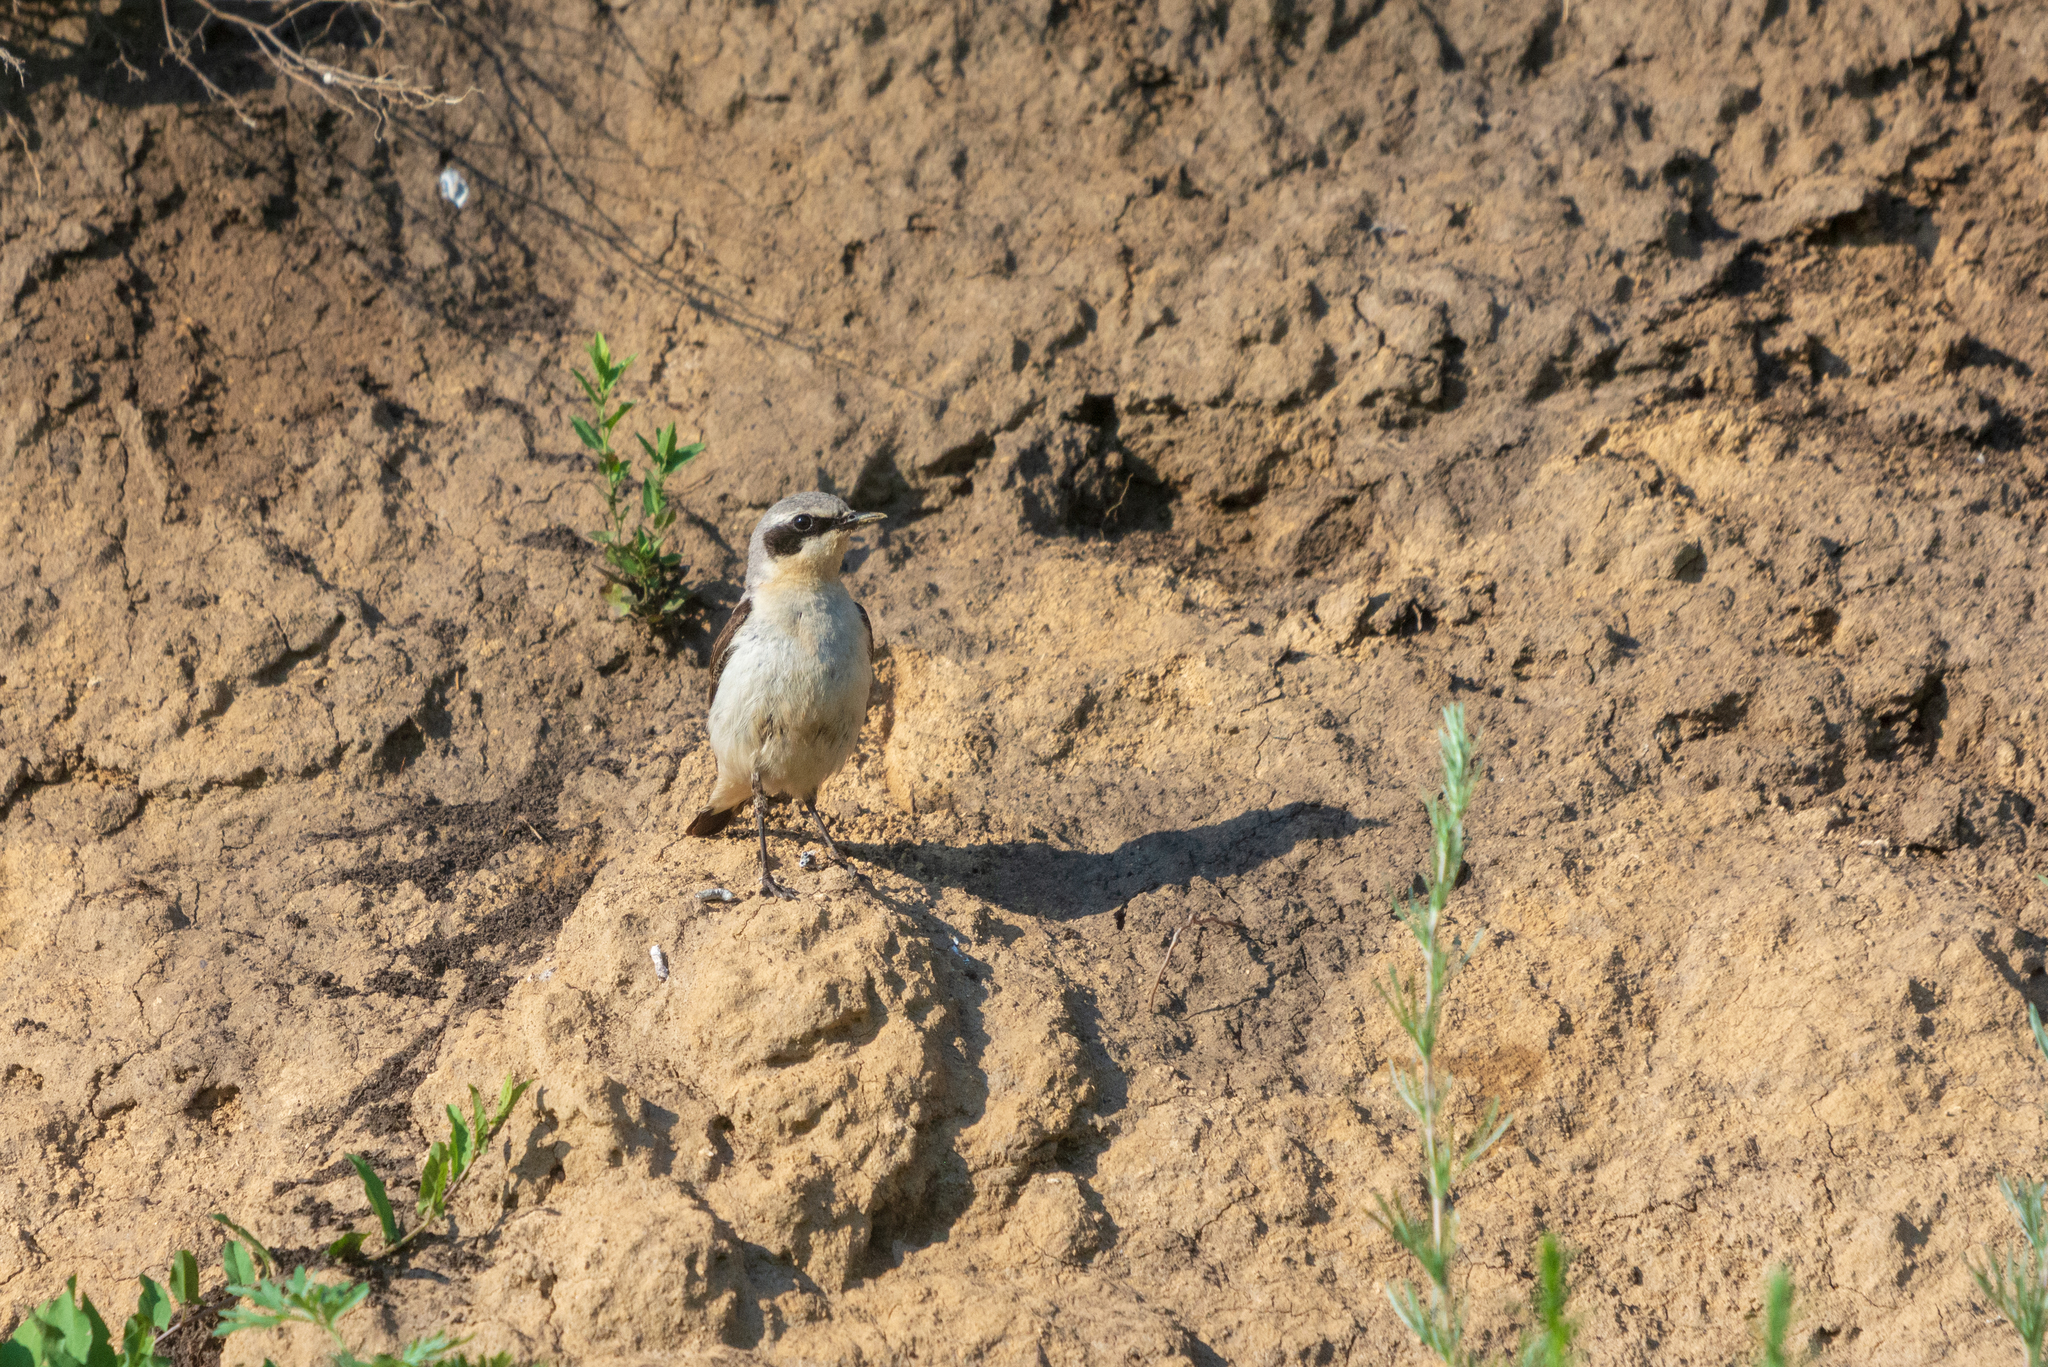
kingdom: Animalia
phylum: Chordata
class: Aves
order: Passeriformes
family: Muscicapidae
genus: Oenanthe
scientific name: Oenanthe oenanthe
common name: Northern wheatear
